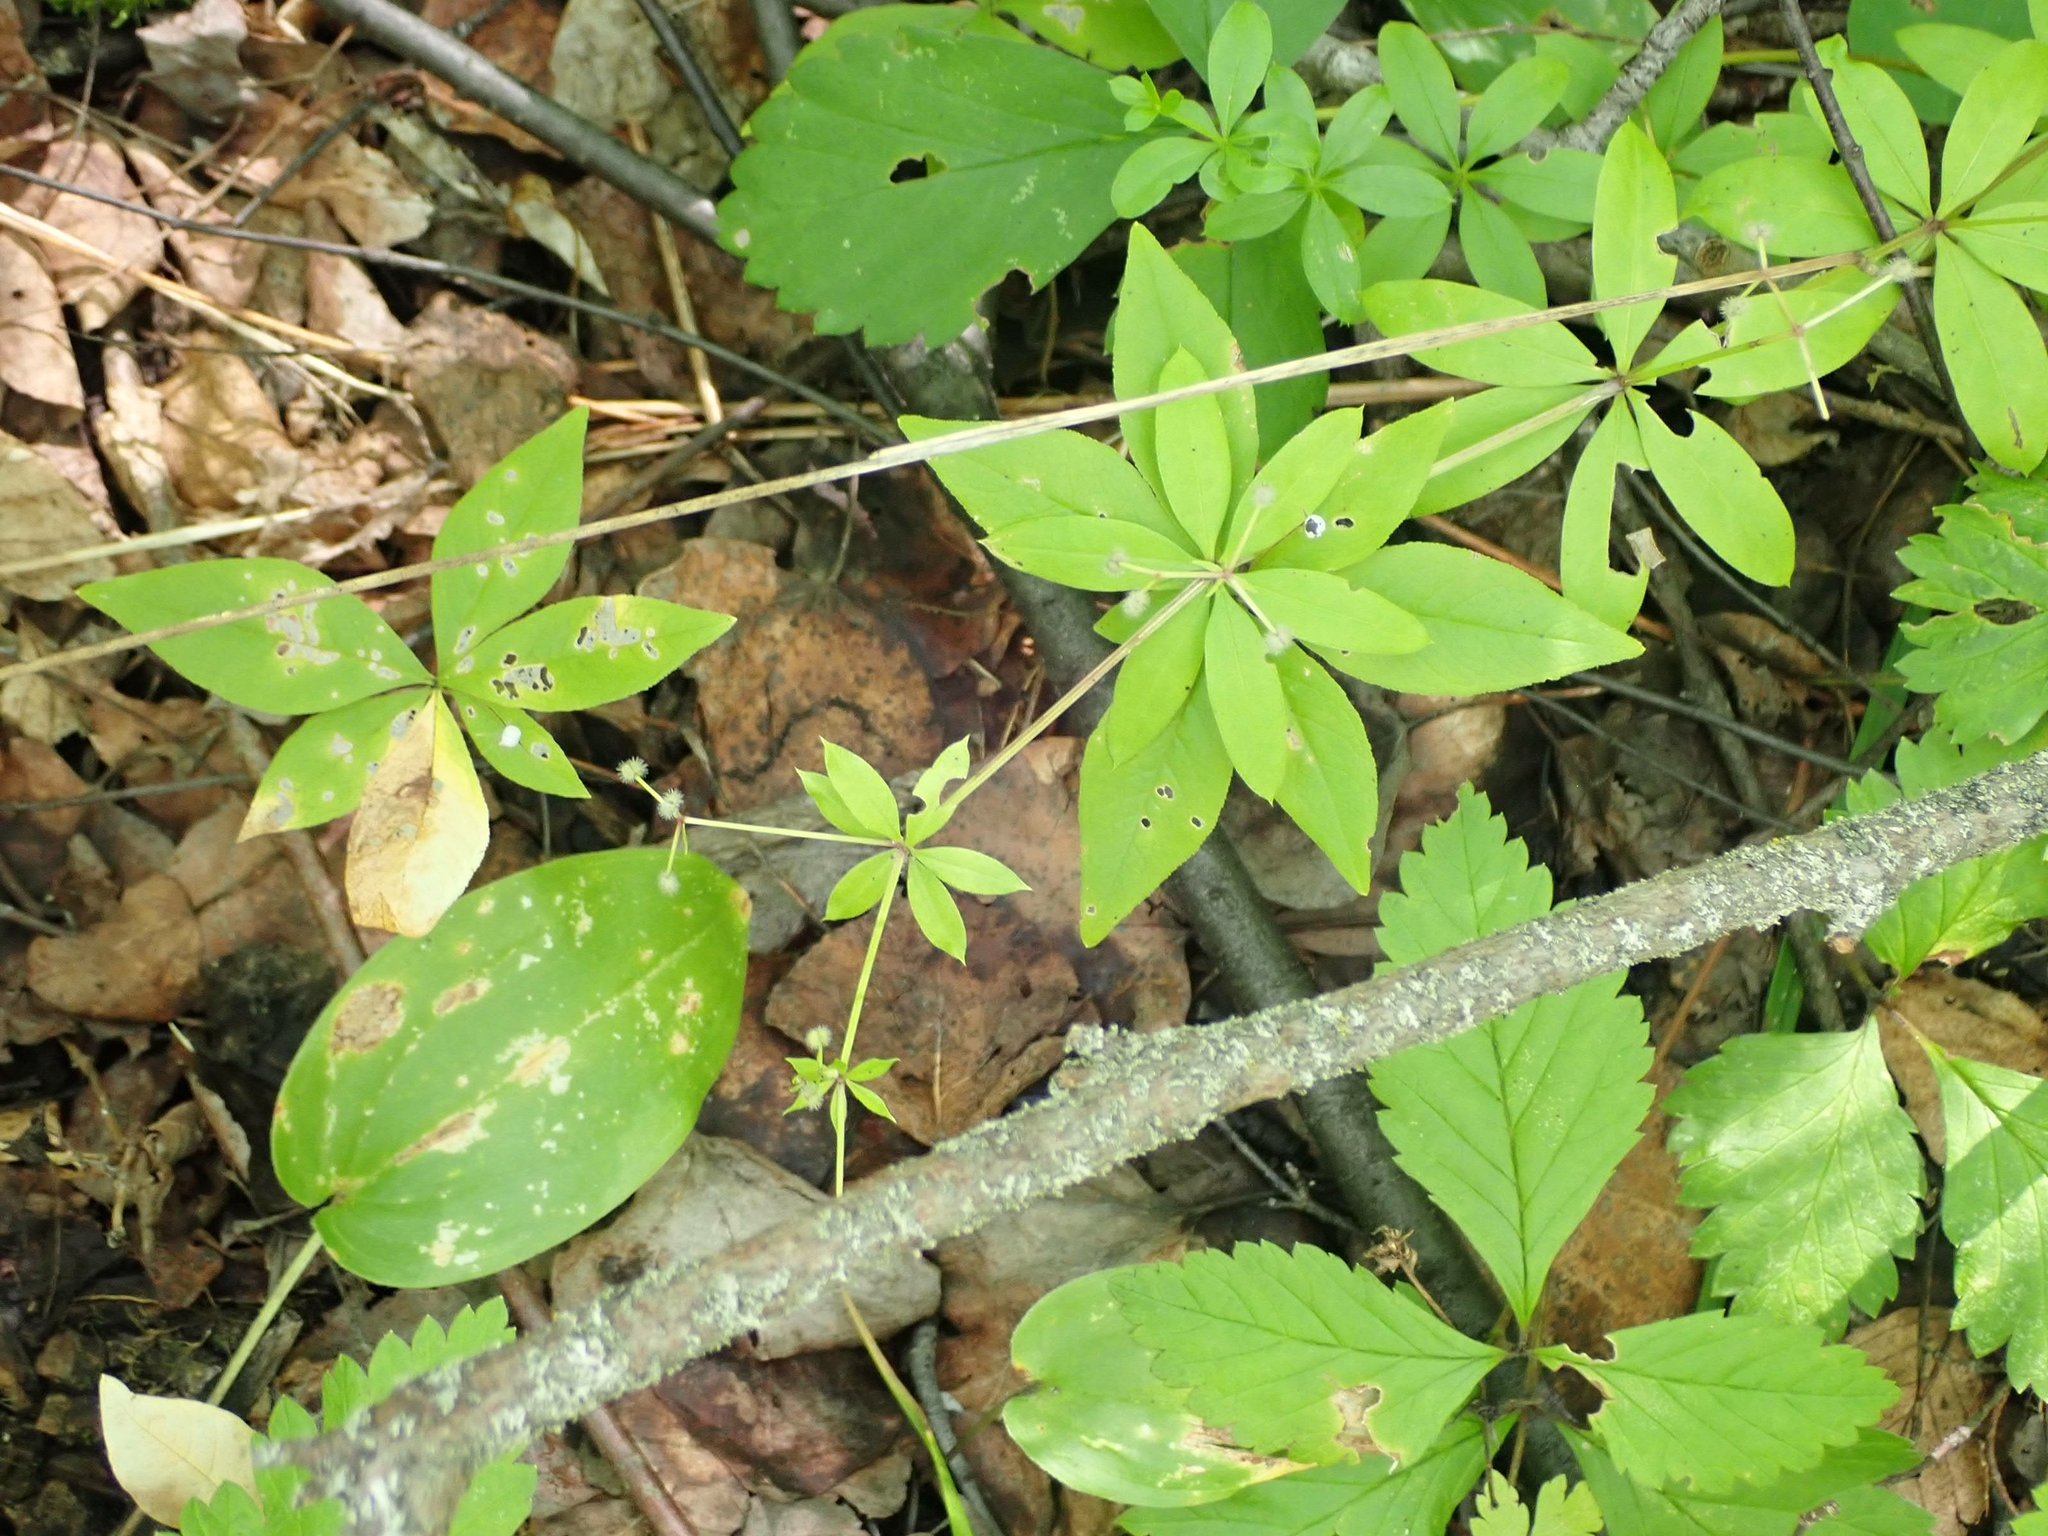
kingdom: Plantae
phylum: Tracheophyta
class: Magnoliopsida
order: Gentianales
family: Rubiaceae
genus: Galium
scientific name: Galium triflorum
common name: Fragrant bedstraw
